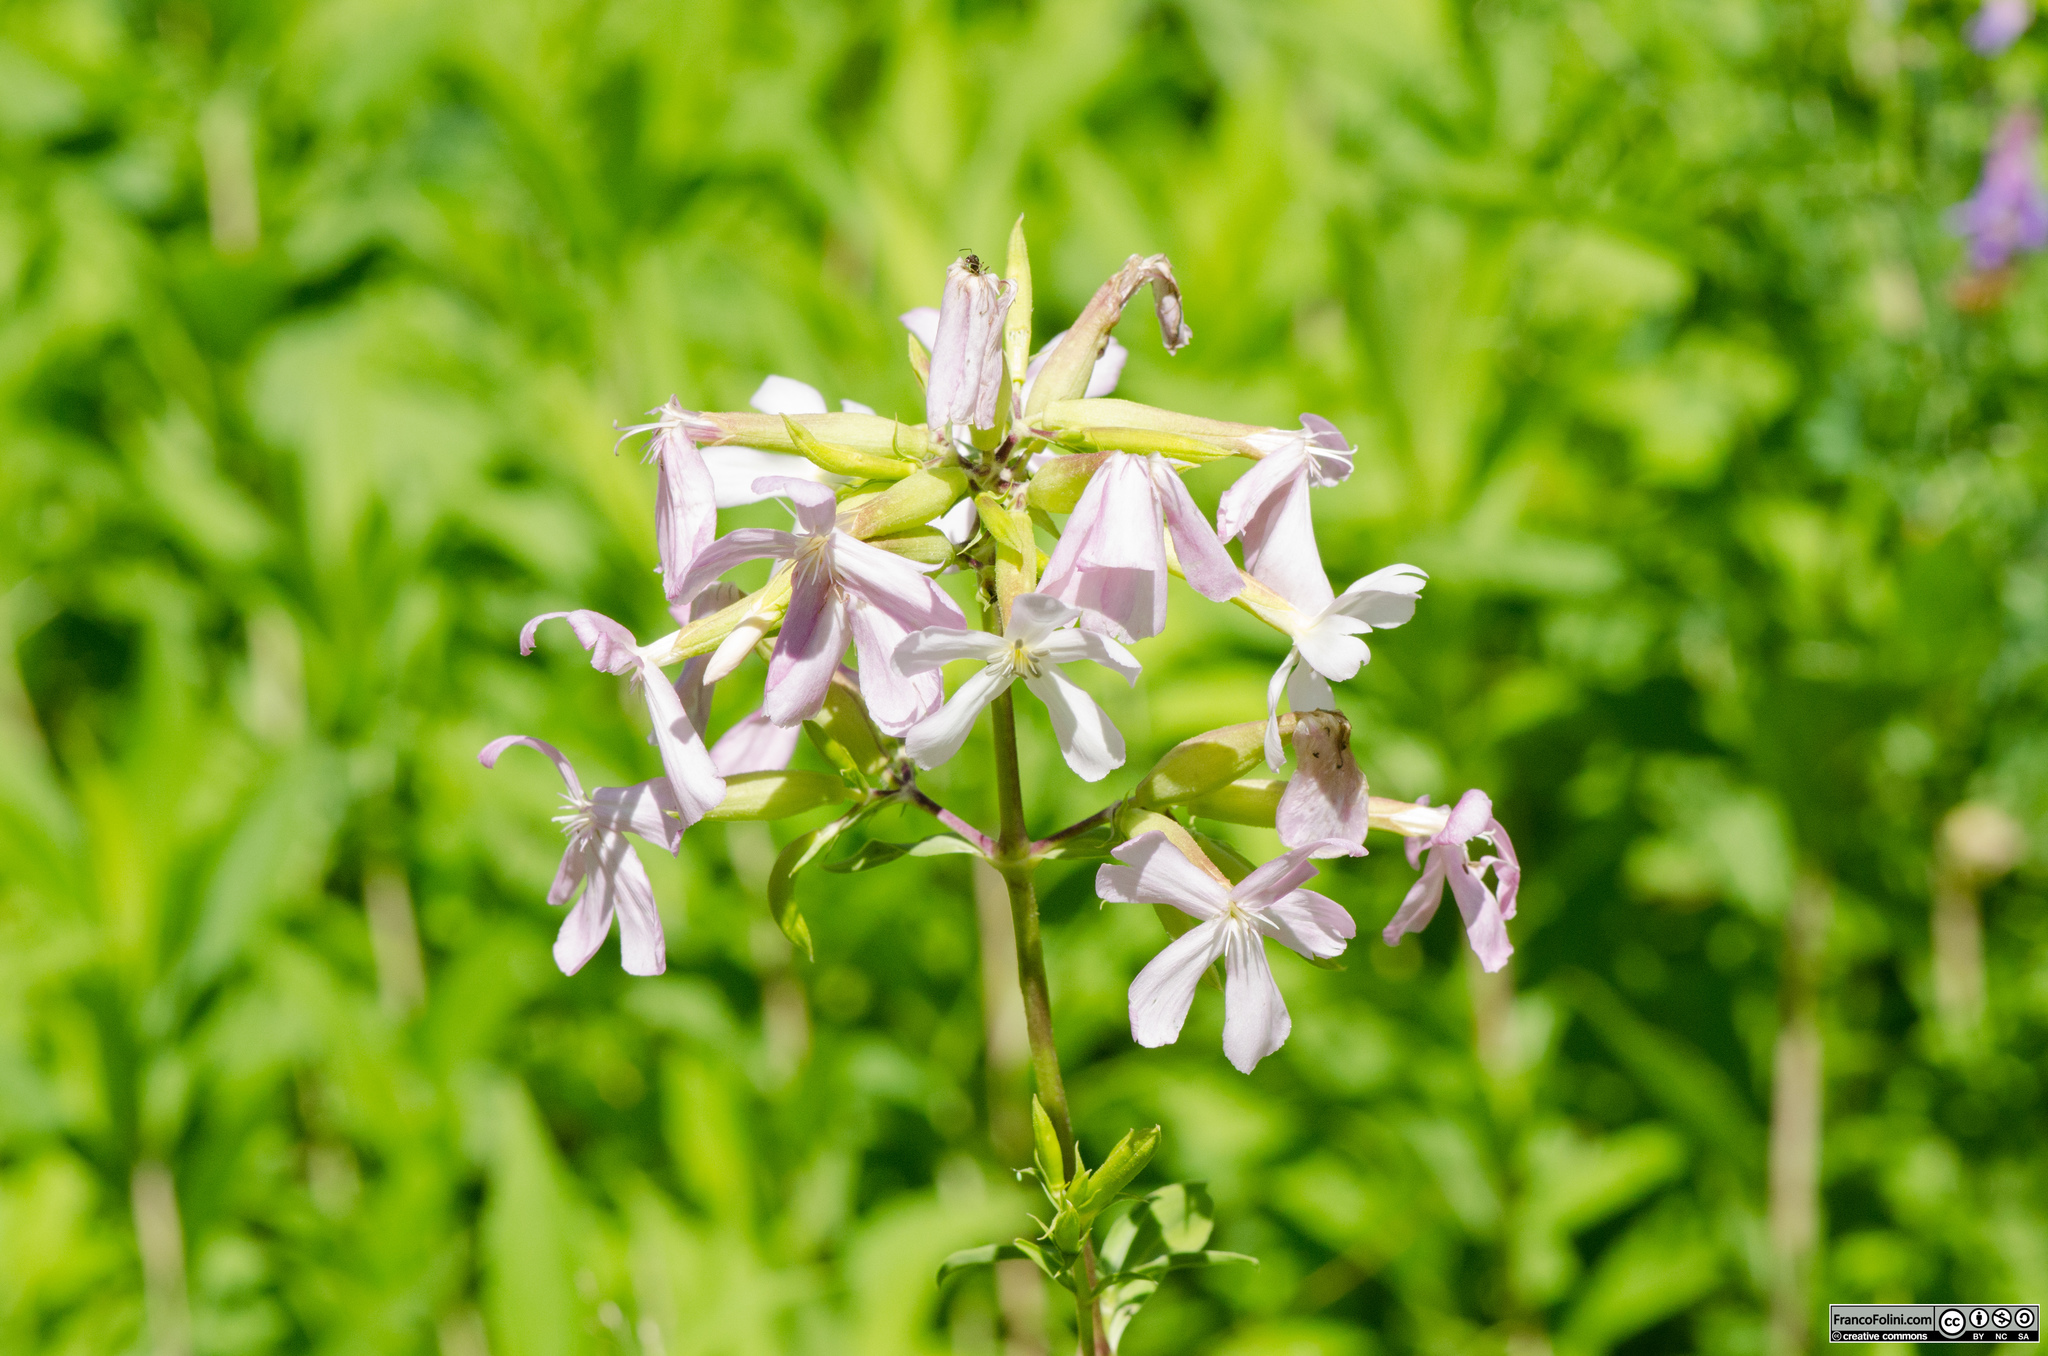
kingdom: Plantae
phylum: Tracheophyta
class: Magnoliopsida
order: Caryophyllales
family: Caryophyllaceae
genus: Saponaria
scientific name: Saponaria officinalis
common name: Soapwort
